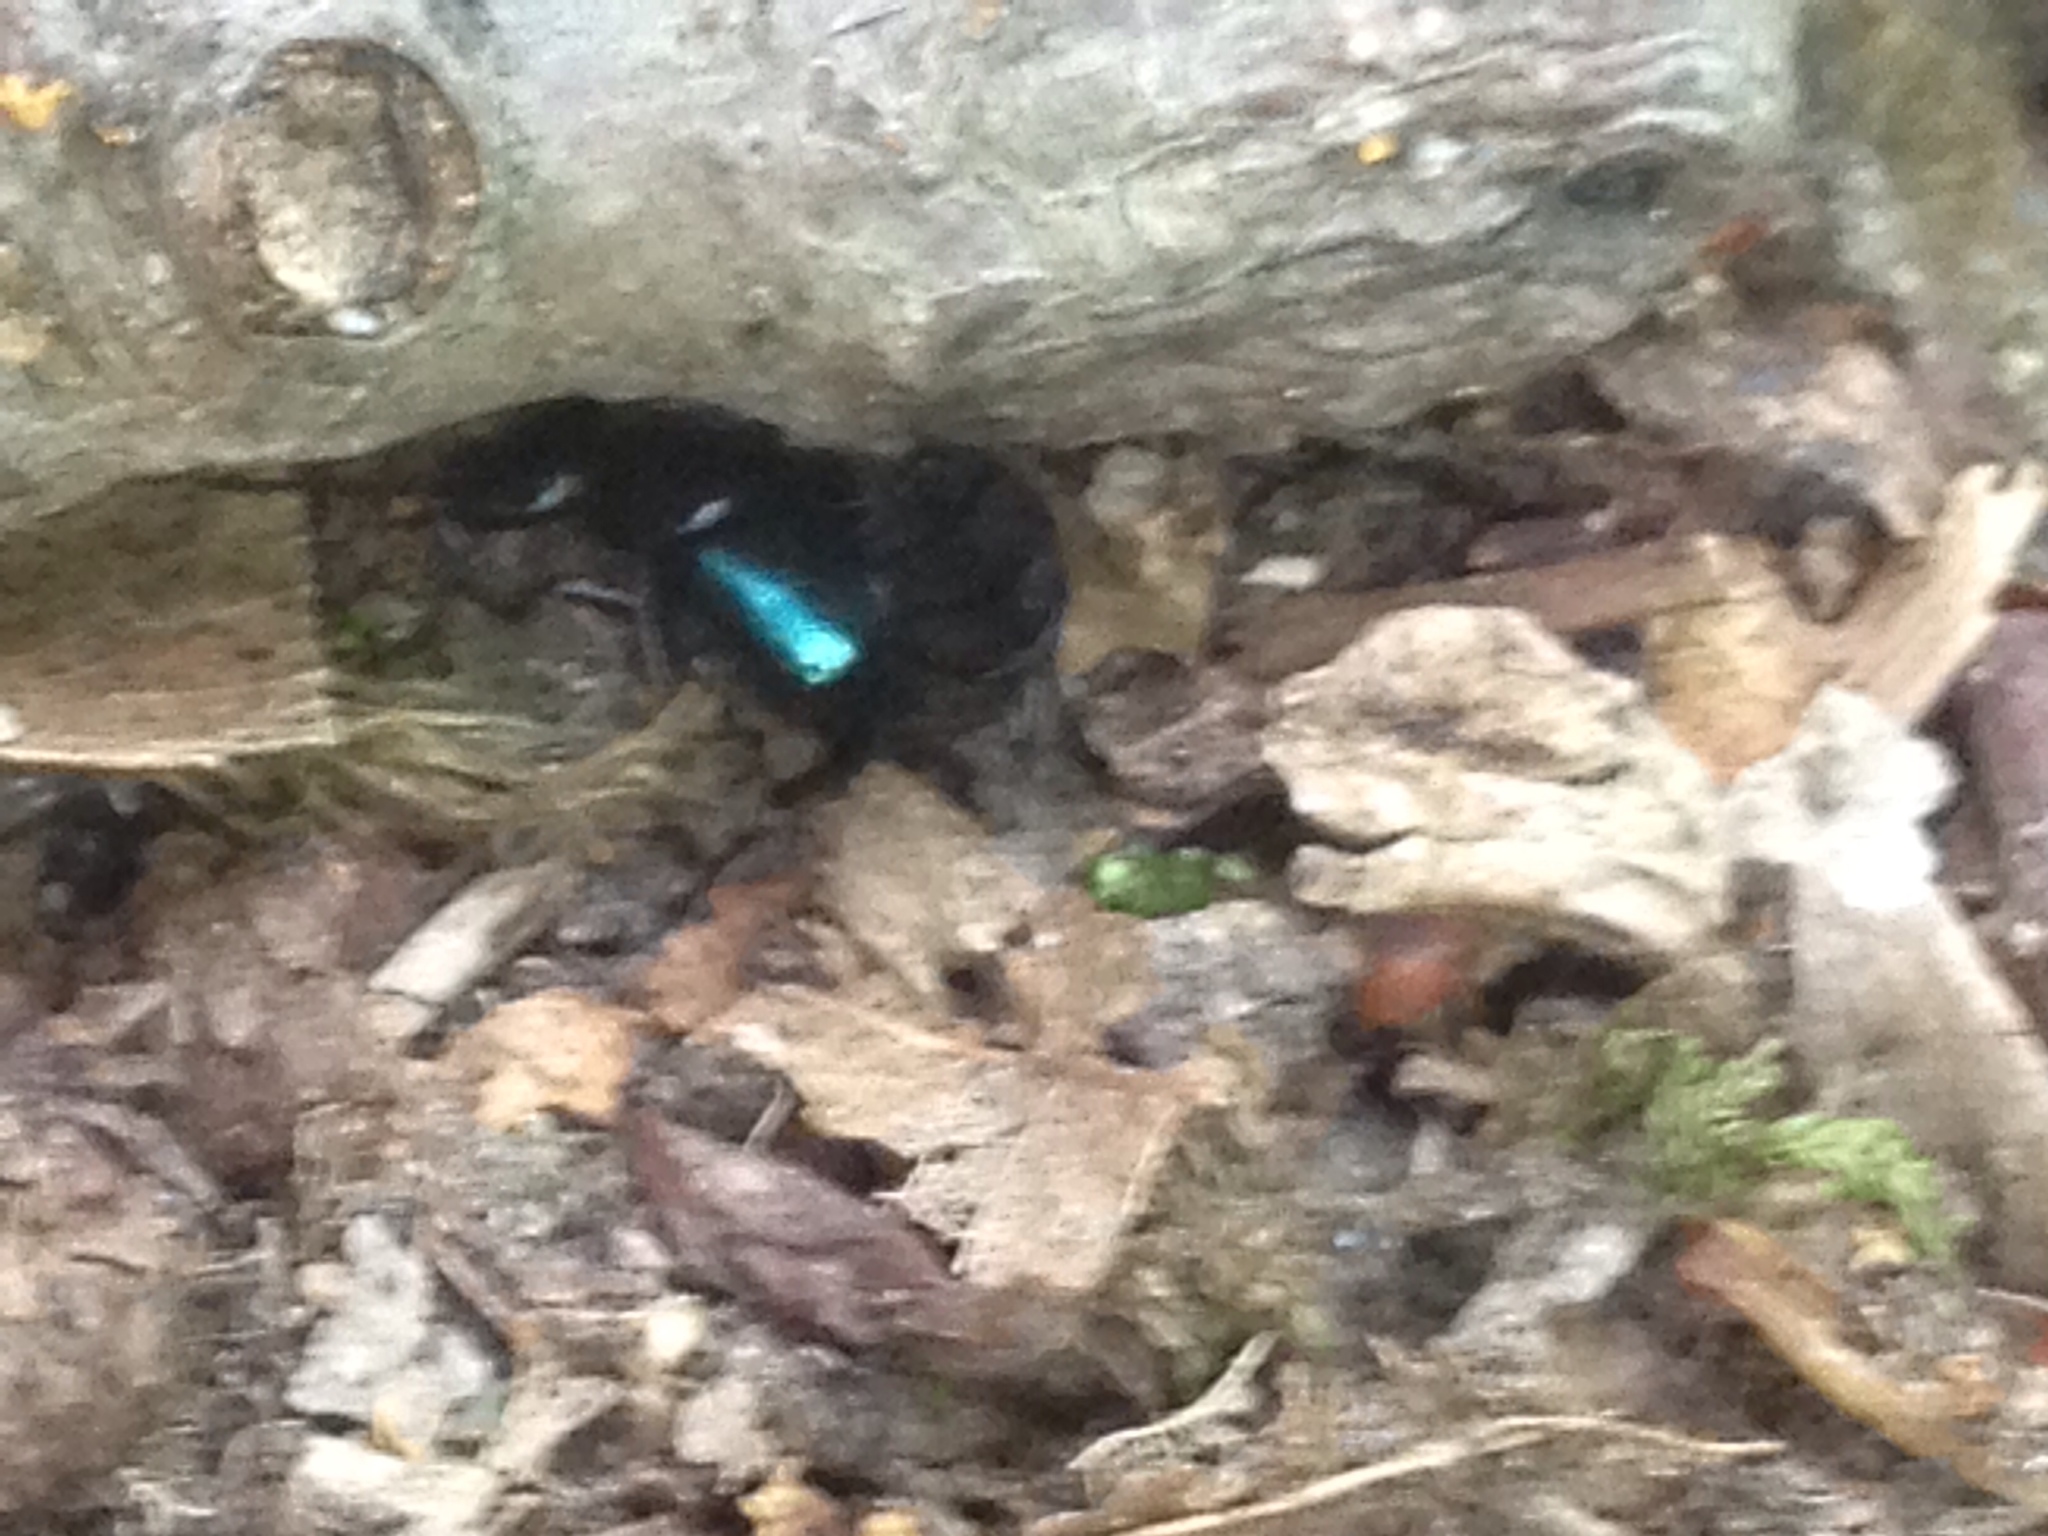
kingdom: Animalia
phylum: Arthropoda
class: Insecta
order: Coleoptera
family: Staphylinidae
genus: Philonthus
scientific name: Philonthus caeruleipennis
